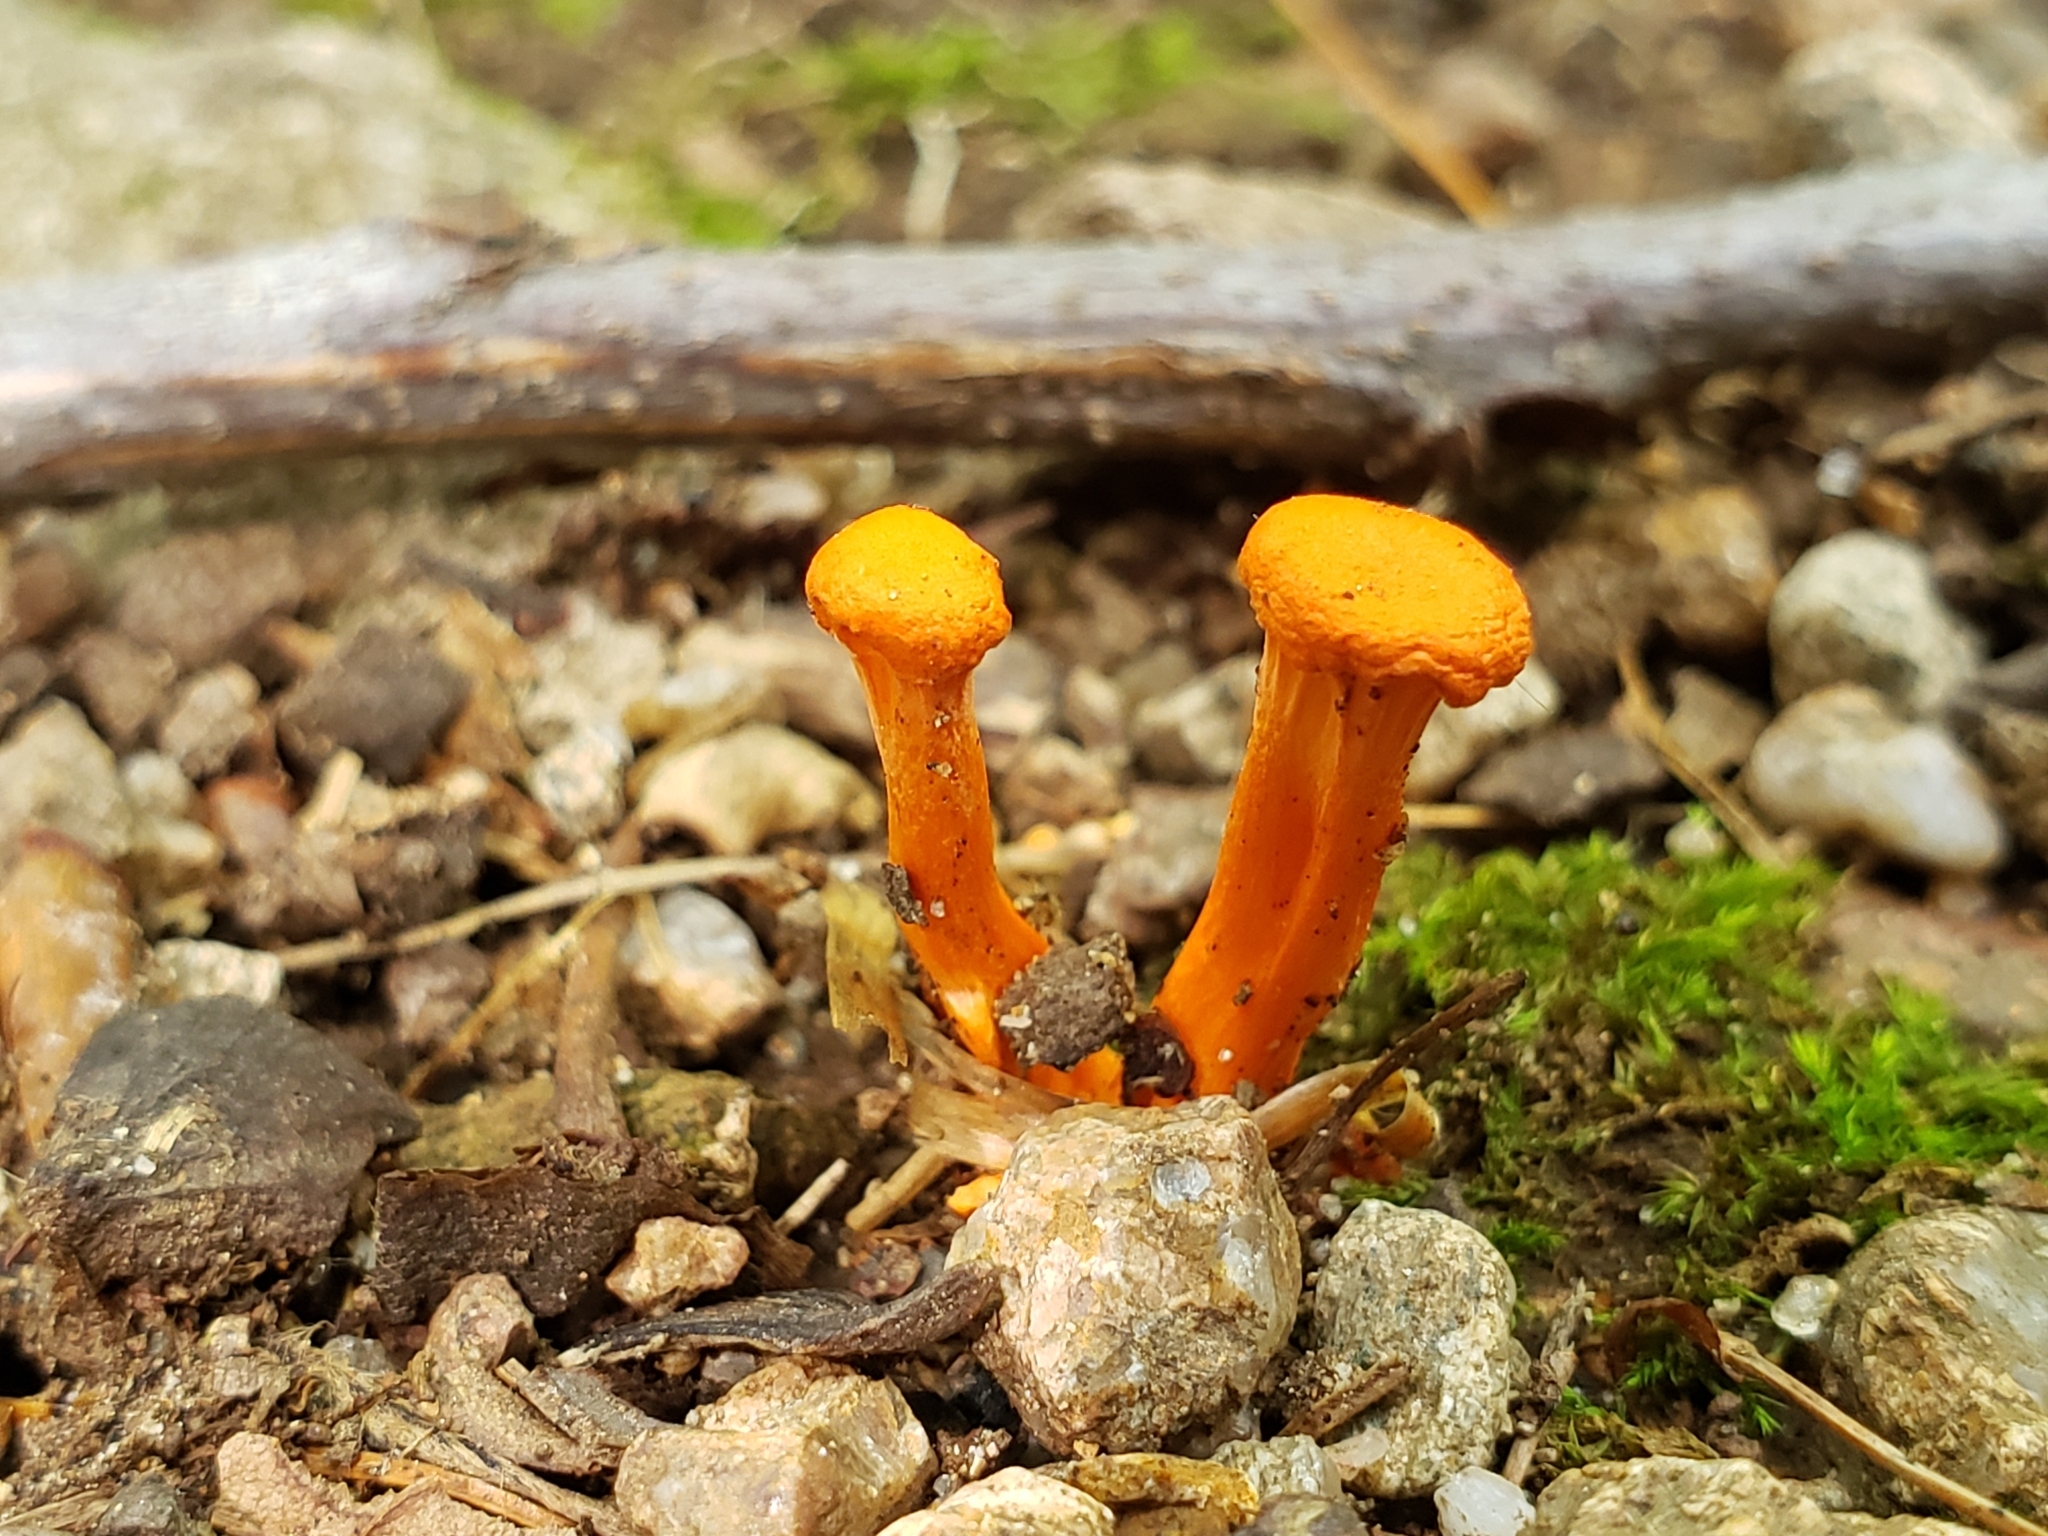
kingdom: Fungi
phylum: Basidiomycota
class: Agaricomycetes
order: Cantharellales
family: Hydnaceae
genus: Cantharellus
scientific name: Cantharellus cinnabarinus
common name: Cinnabar chanterelle
